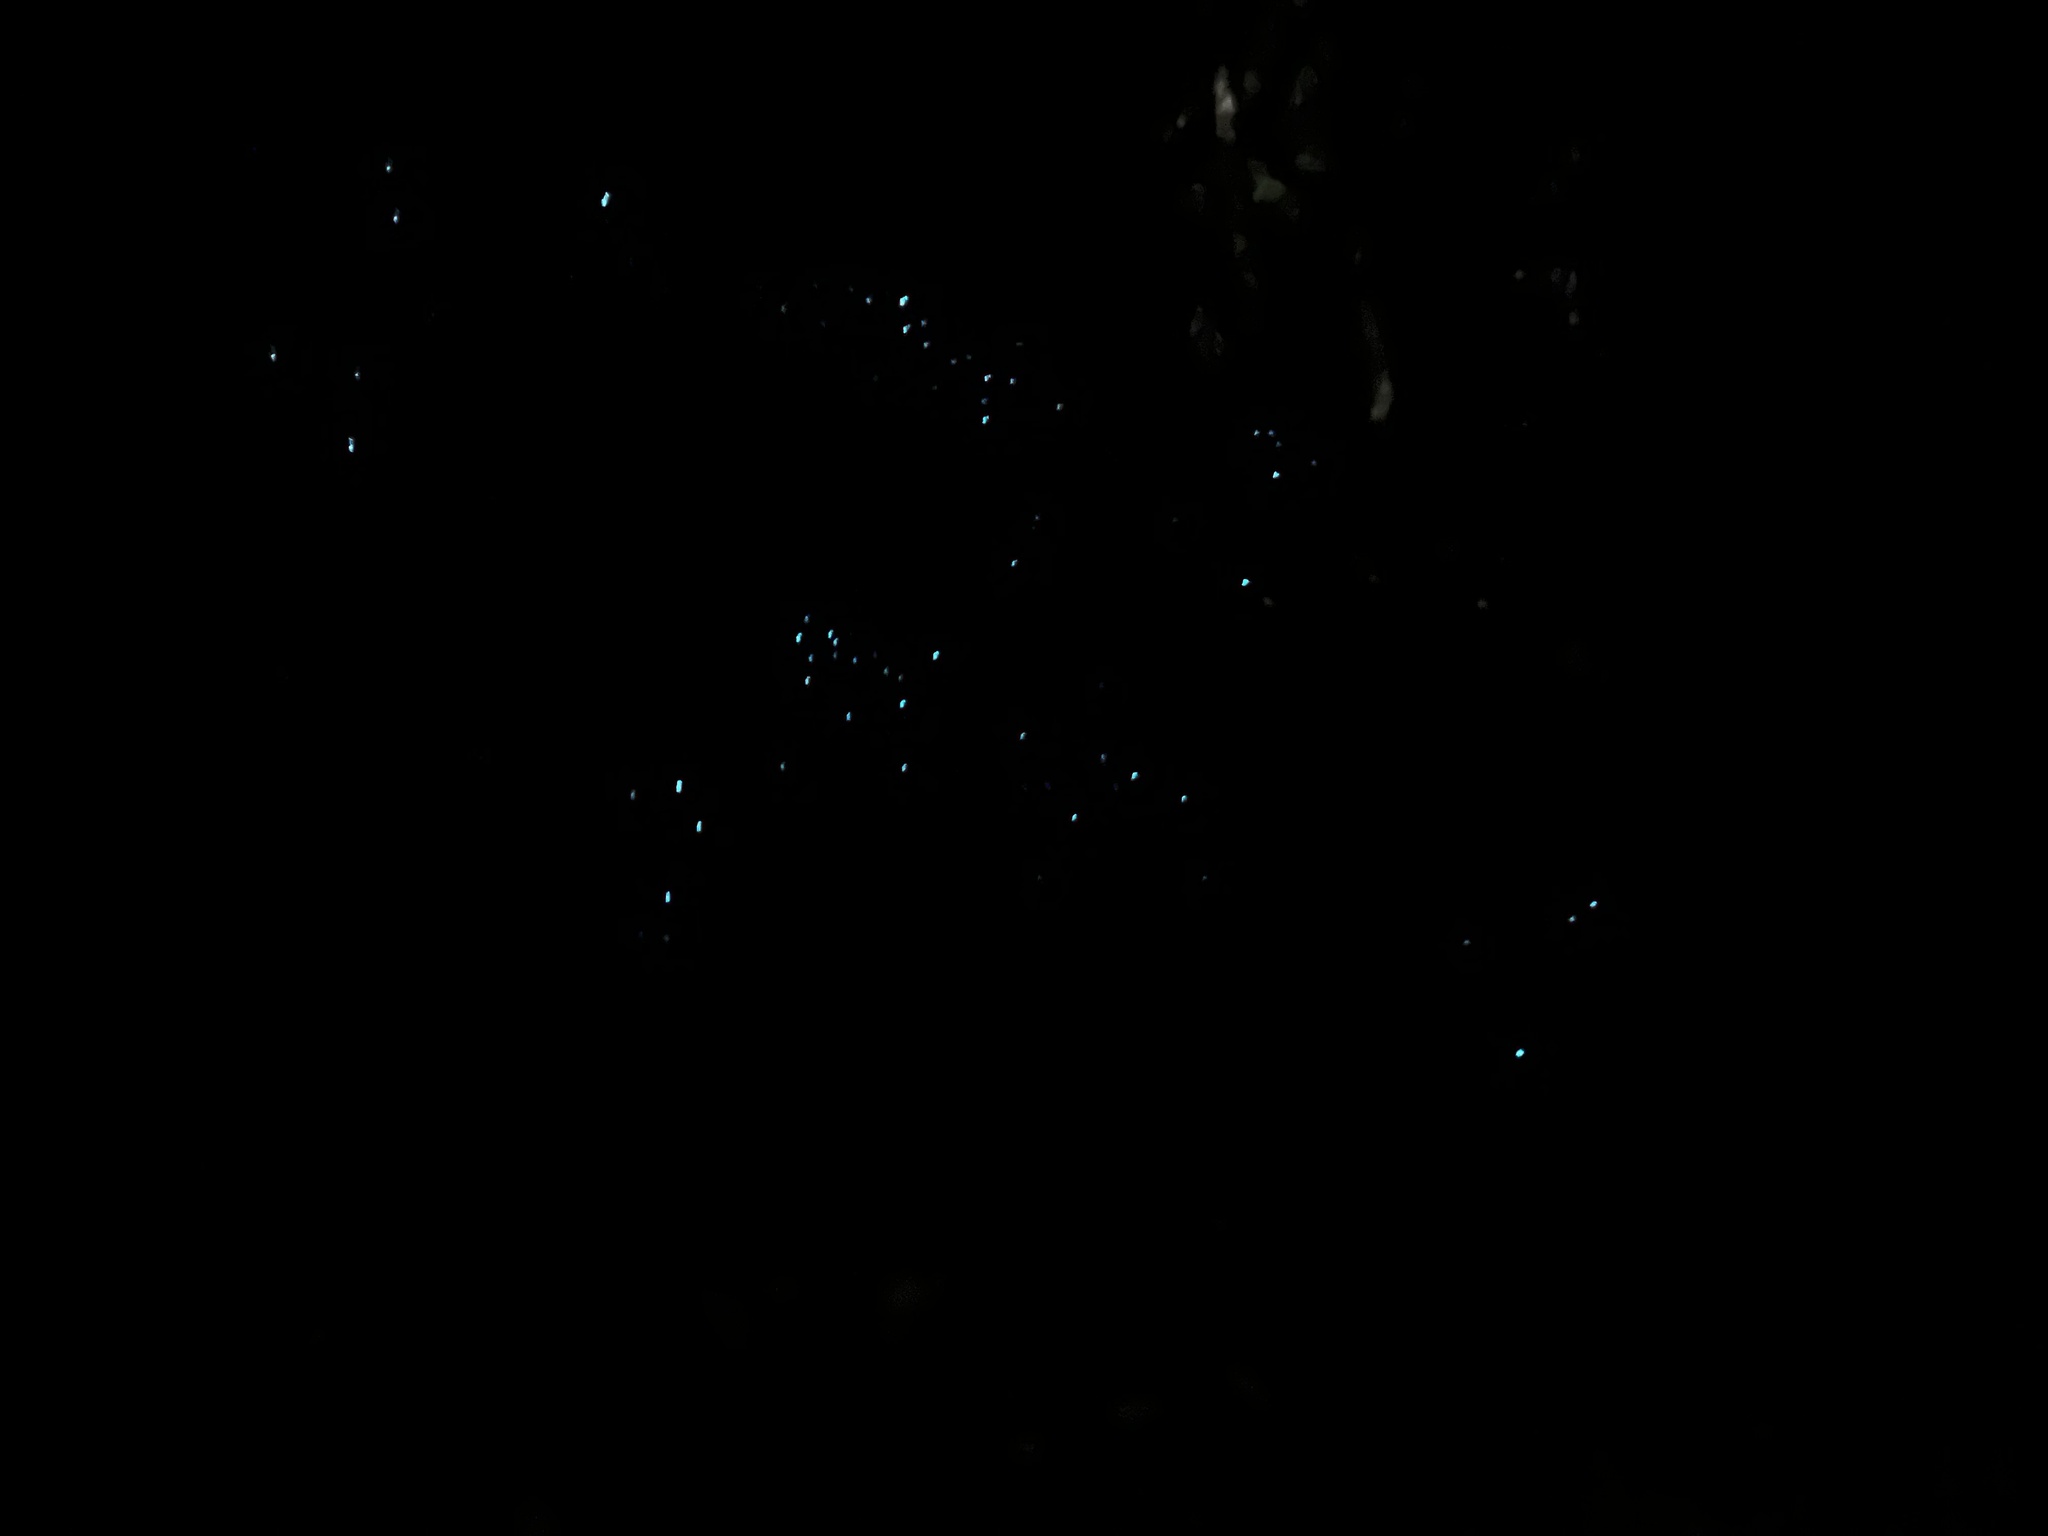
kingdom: Animalia
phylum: Arthropoda
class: Insecta
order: Diptera
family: Keroplatidae
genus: Arachnocampa
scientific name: Arachnocampa otwayensis
